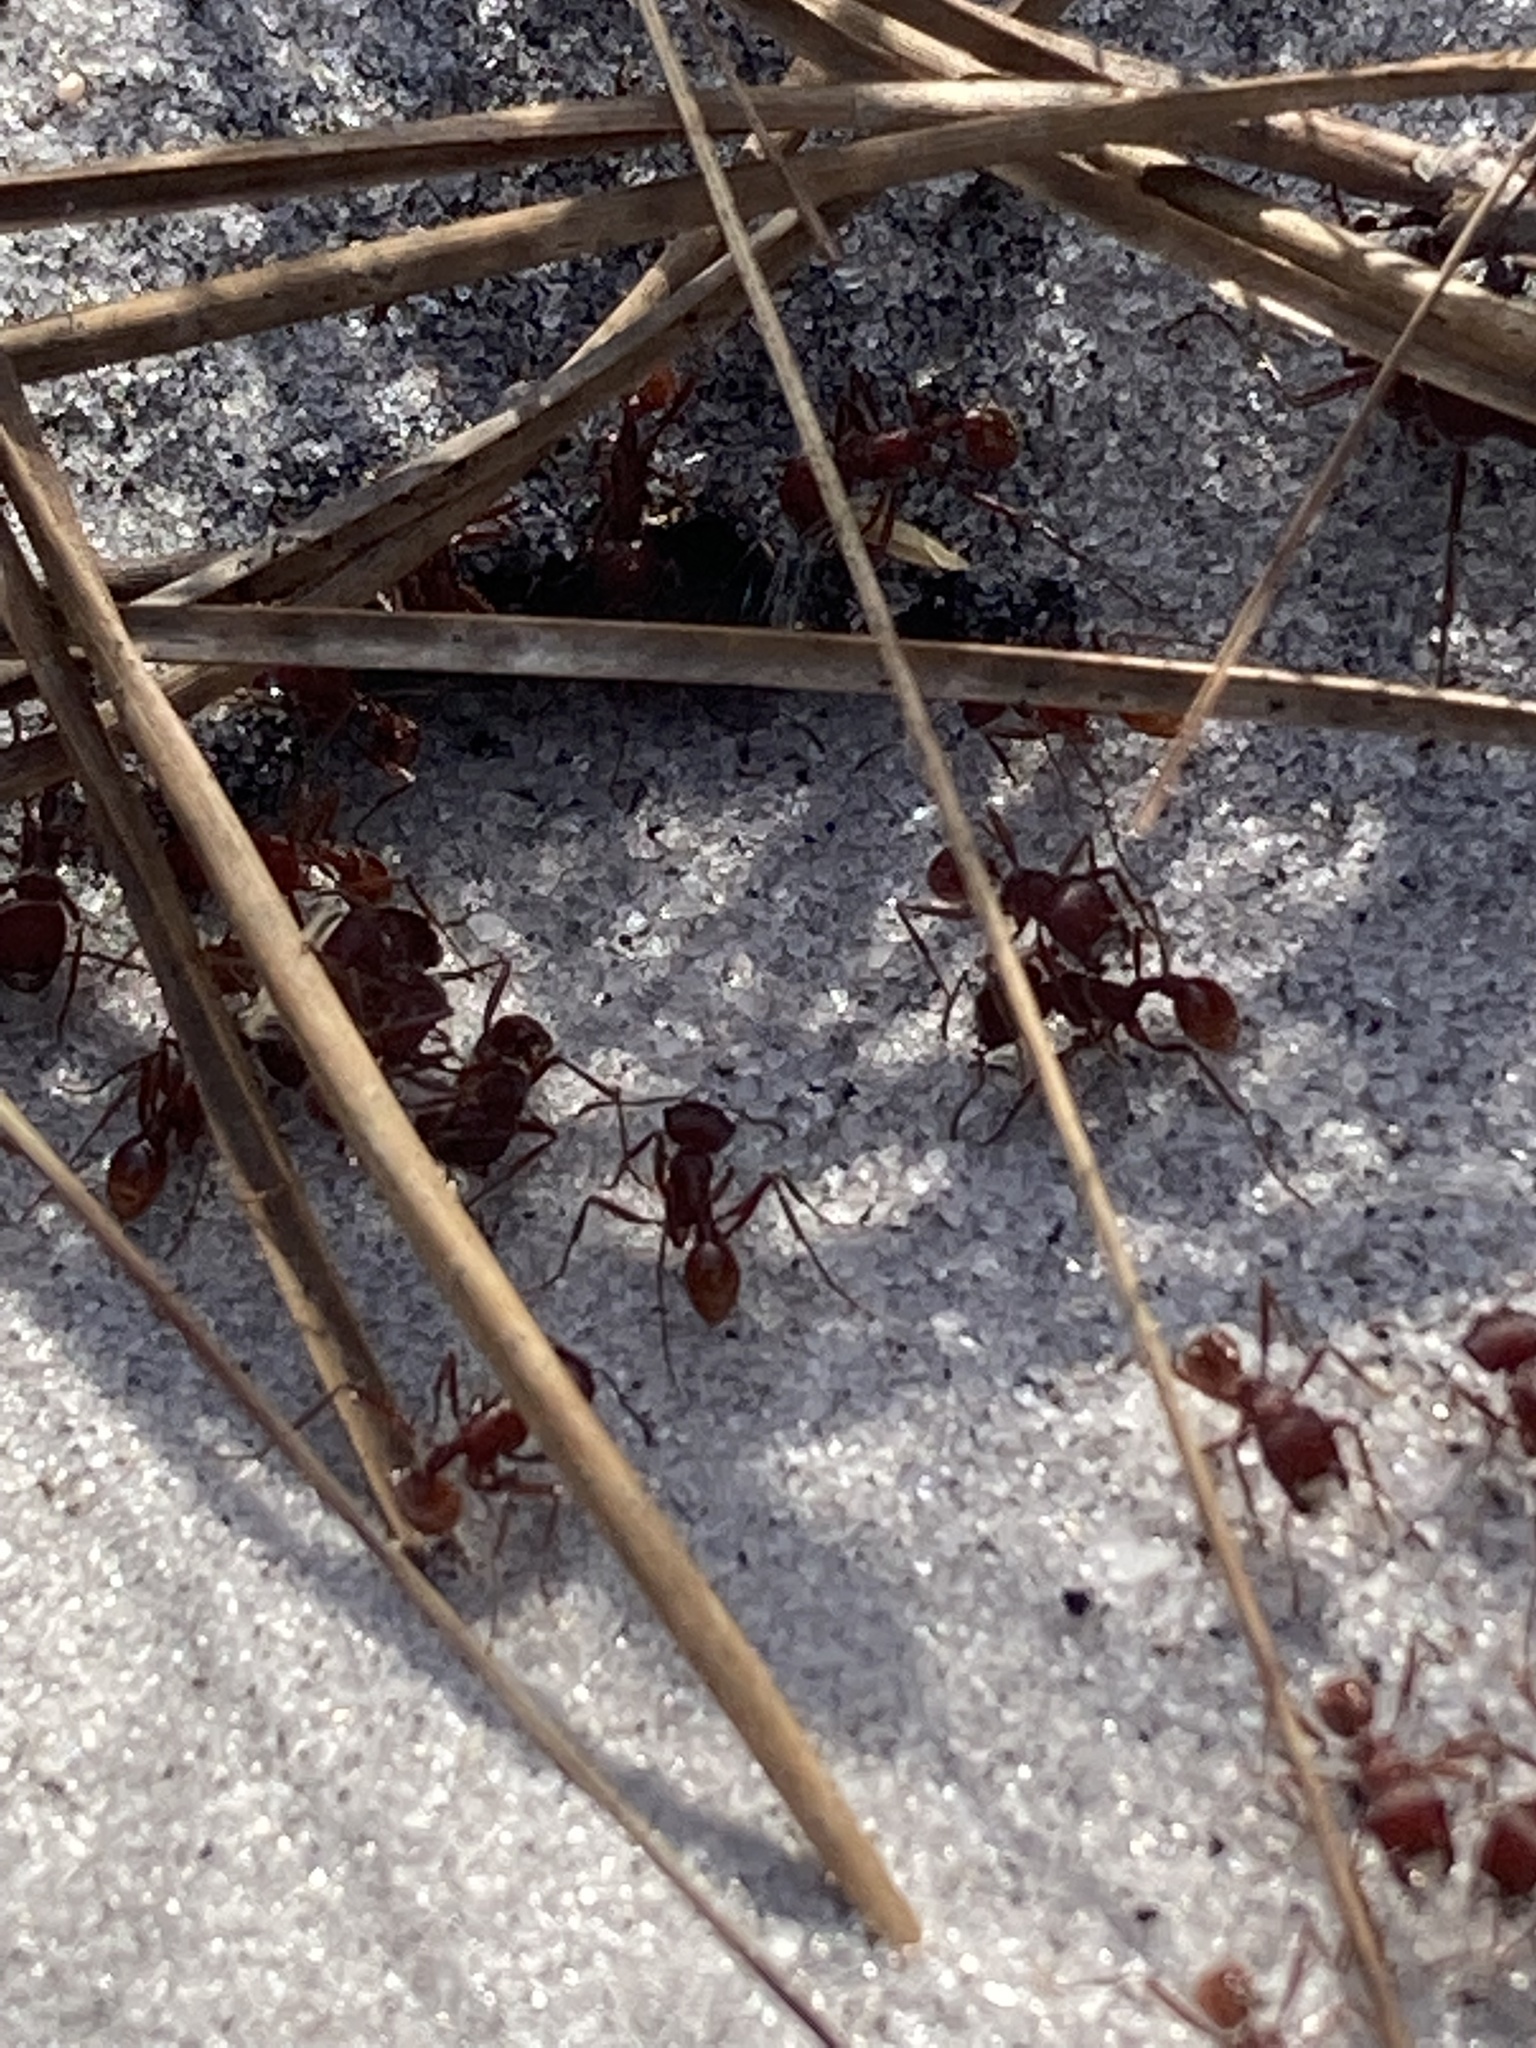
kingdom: Animalia
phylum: Arthropoda
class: Insecta
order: Hymenoptera
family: Formicidae
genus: Pogonomyrmex
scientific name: Pogonomyrmex badius
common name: Florida harvester ant
